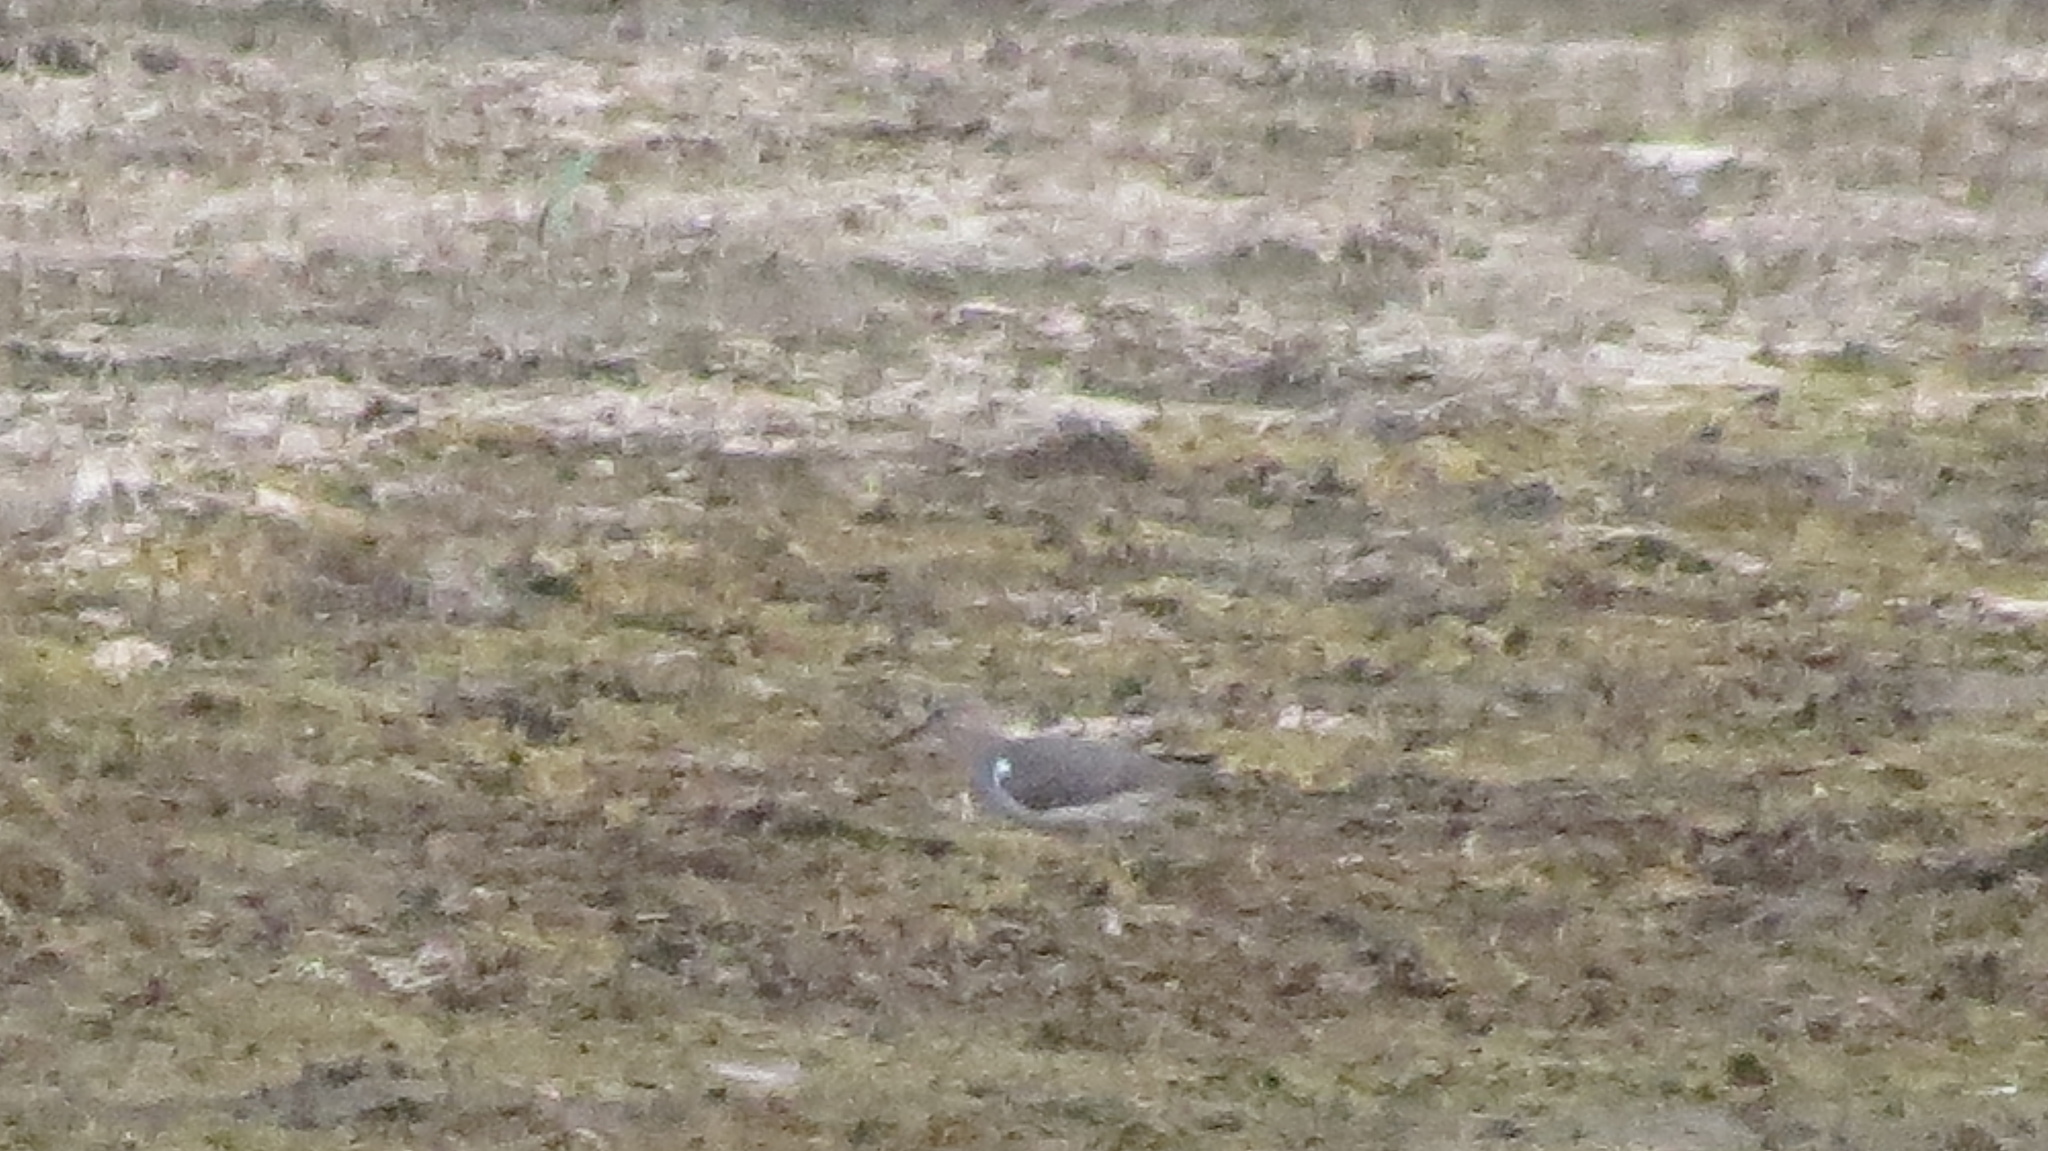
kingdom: Animalia
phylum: Chordata
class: Aves
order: Charadriiformes
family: Scolopacidae
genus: Actitis
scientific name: Actitis macularius
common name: Spotted sandpiper
